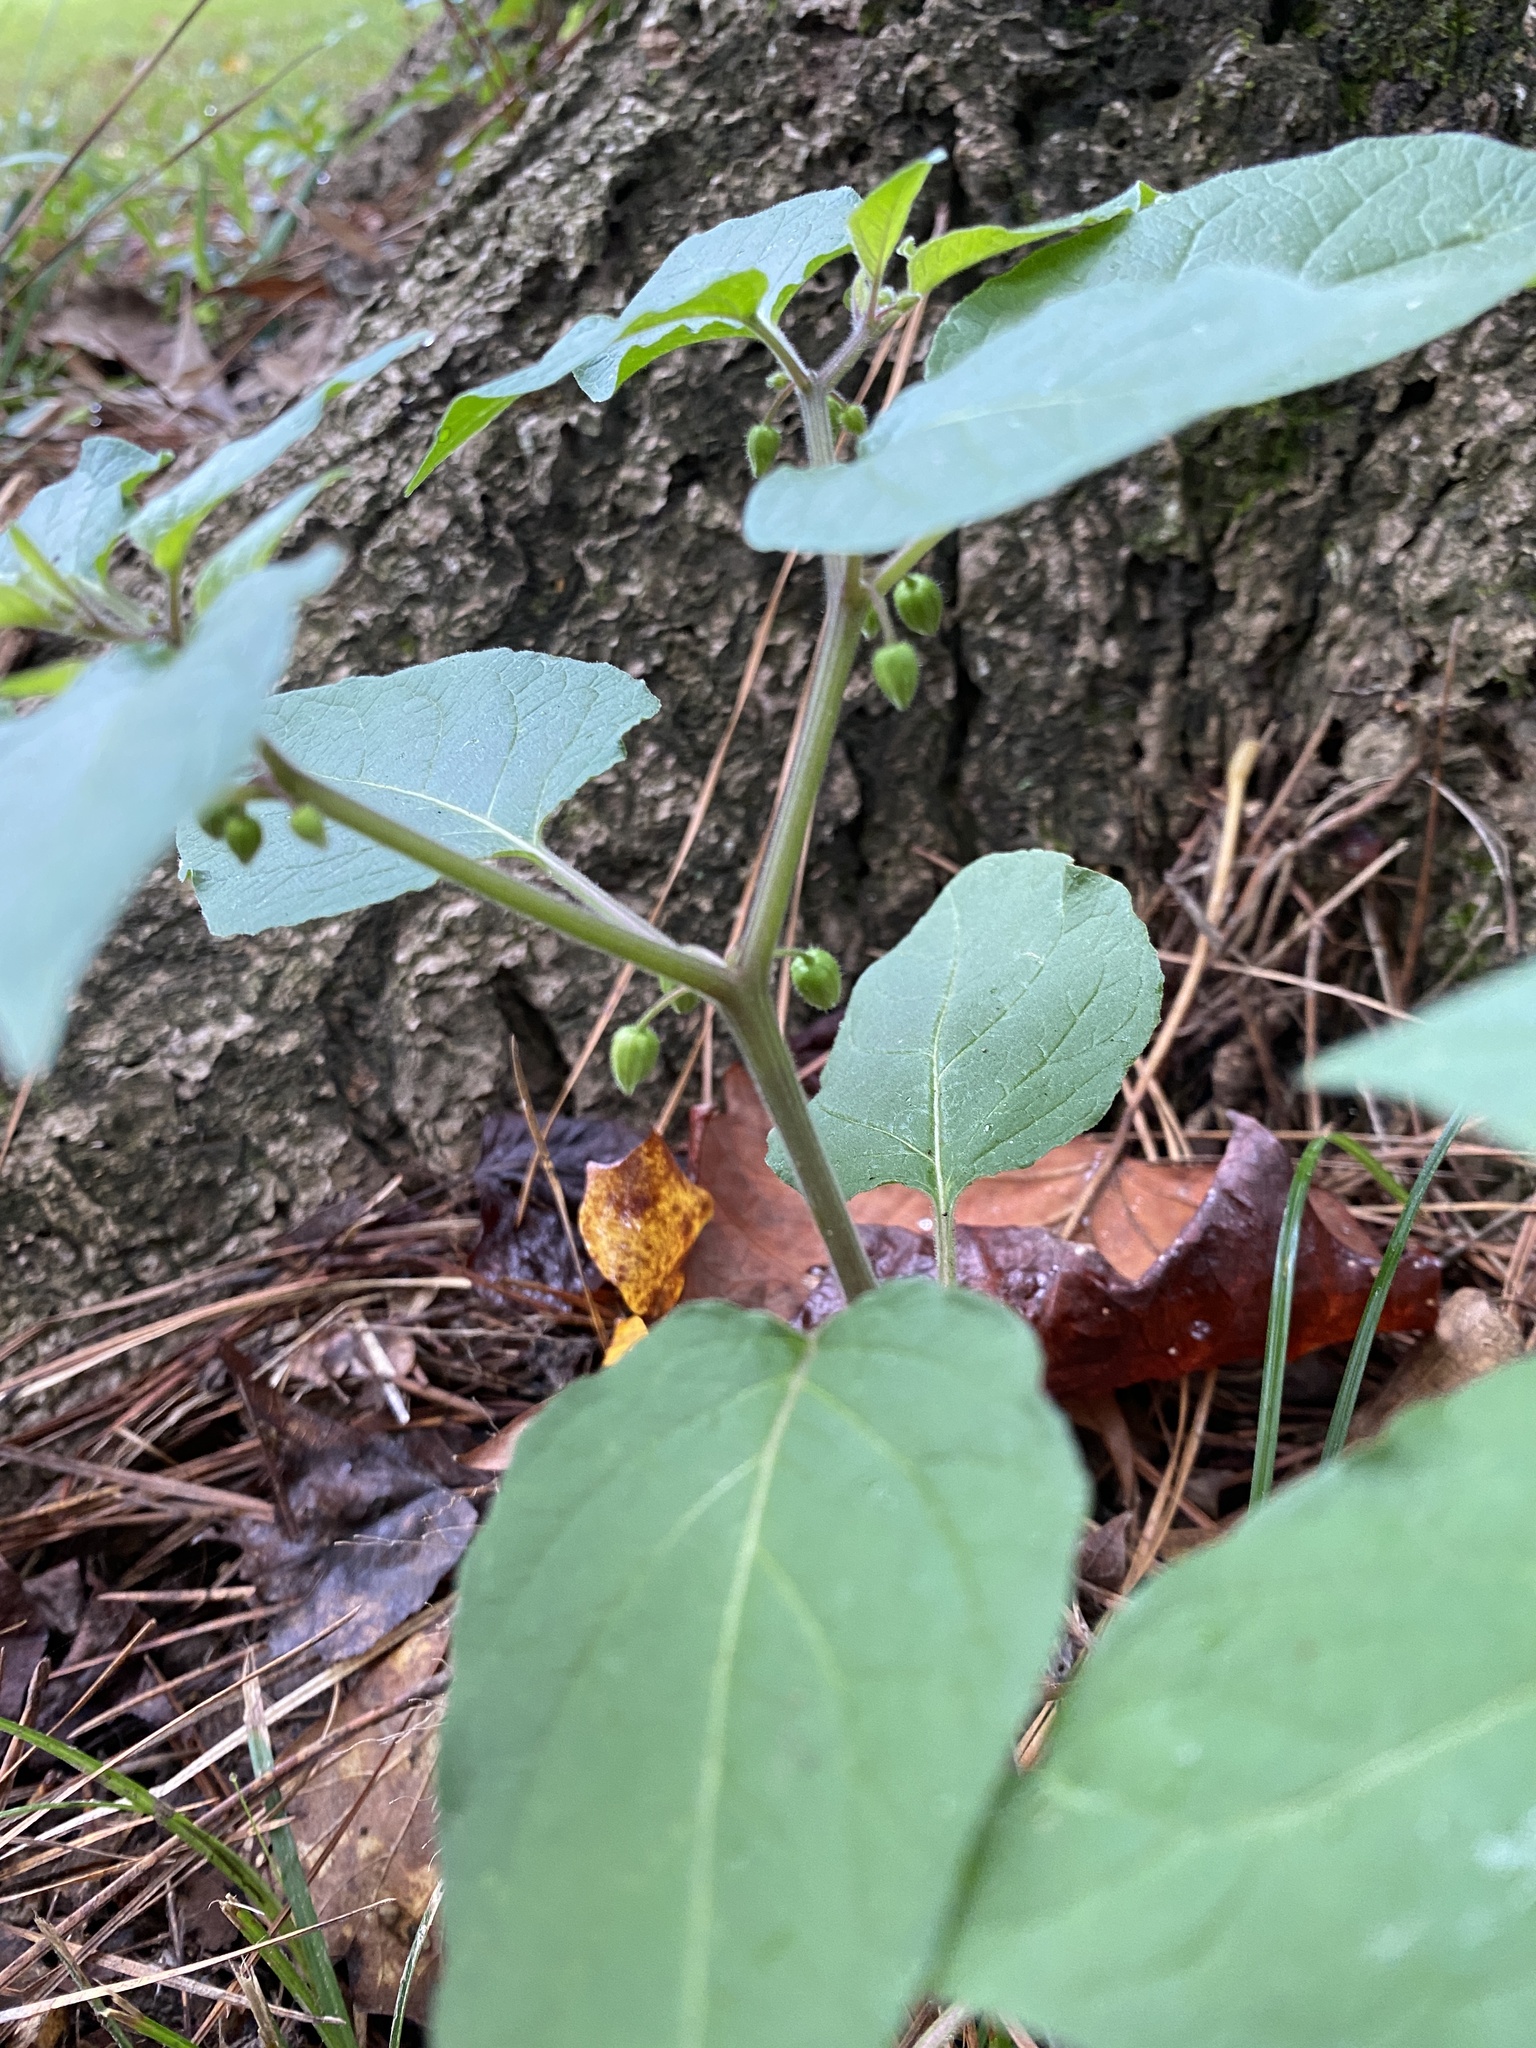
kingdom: Plantae
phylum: Tracheophyta
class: Magnoliopsida
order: Solanales
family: Solanaceae
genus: Calliphysalis
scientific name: Calliphysalis carpenteri
